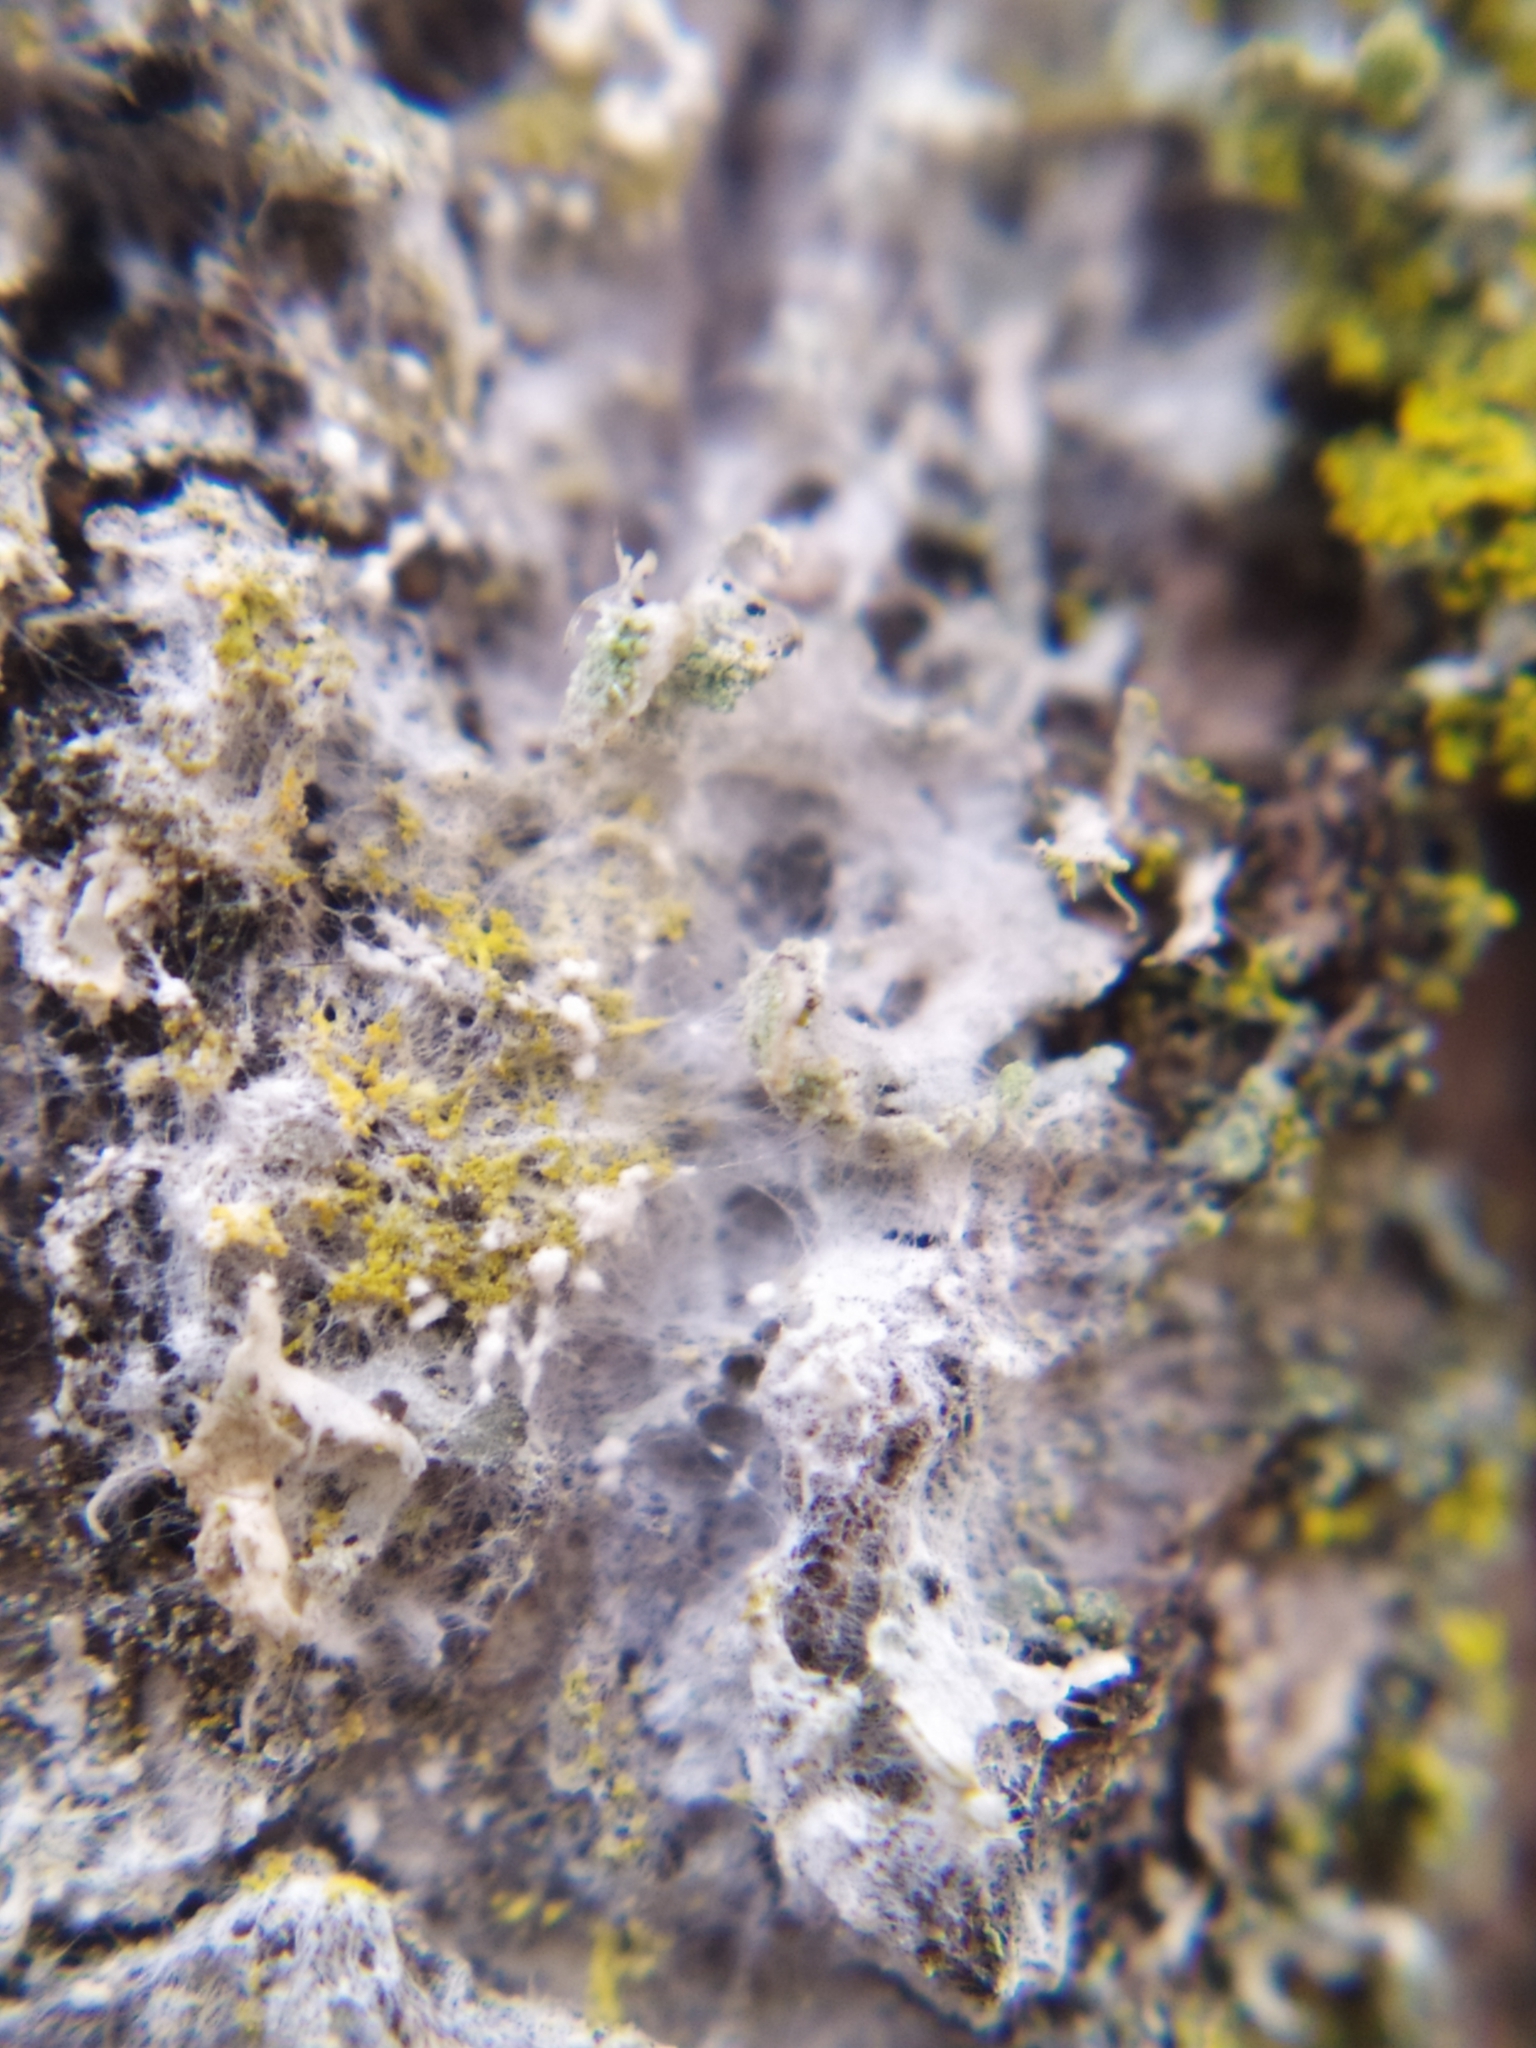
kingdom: Fungi
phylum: Basidiomycota
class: Agaricomycetes
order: Atheliales
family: Atheliaceae
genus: Athelia
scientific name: Athelia arachnoidea
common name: Candelabra duster
